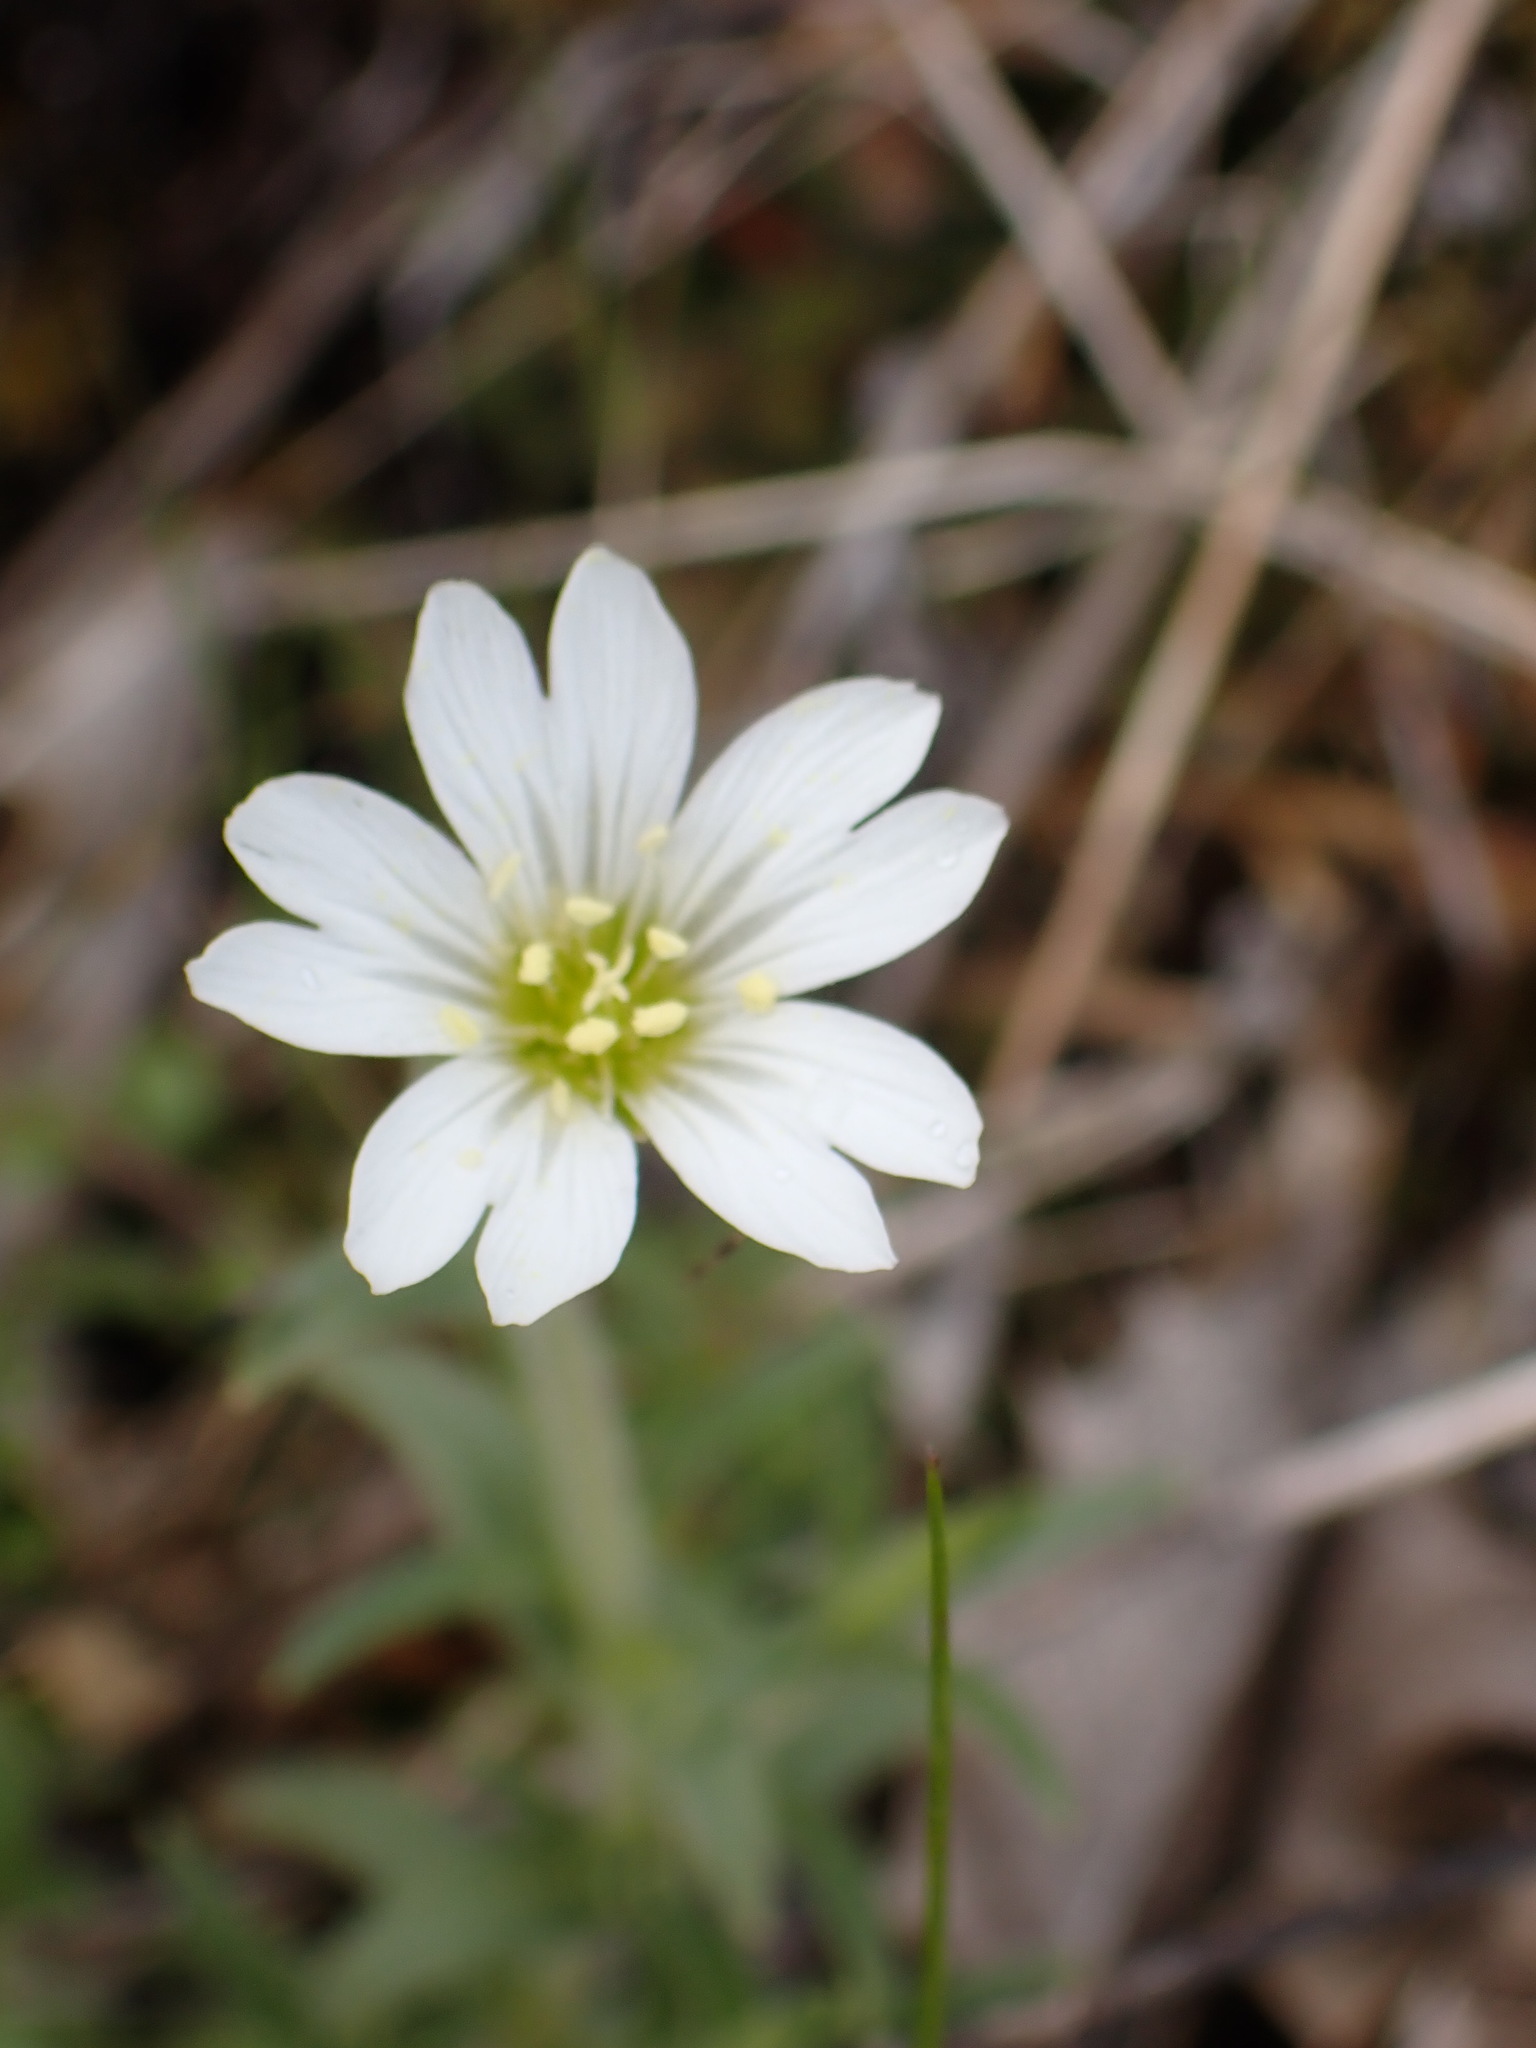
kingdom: Plantae
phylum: Tracheophyta
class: Magnoliopsida
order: Caryophyllales
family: Caryophyllaceae
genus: Cerastium
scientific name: Cerastium arvense
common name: Field mouse-ear
